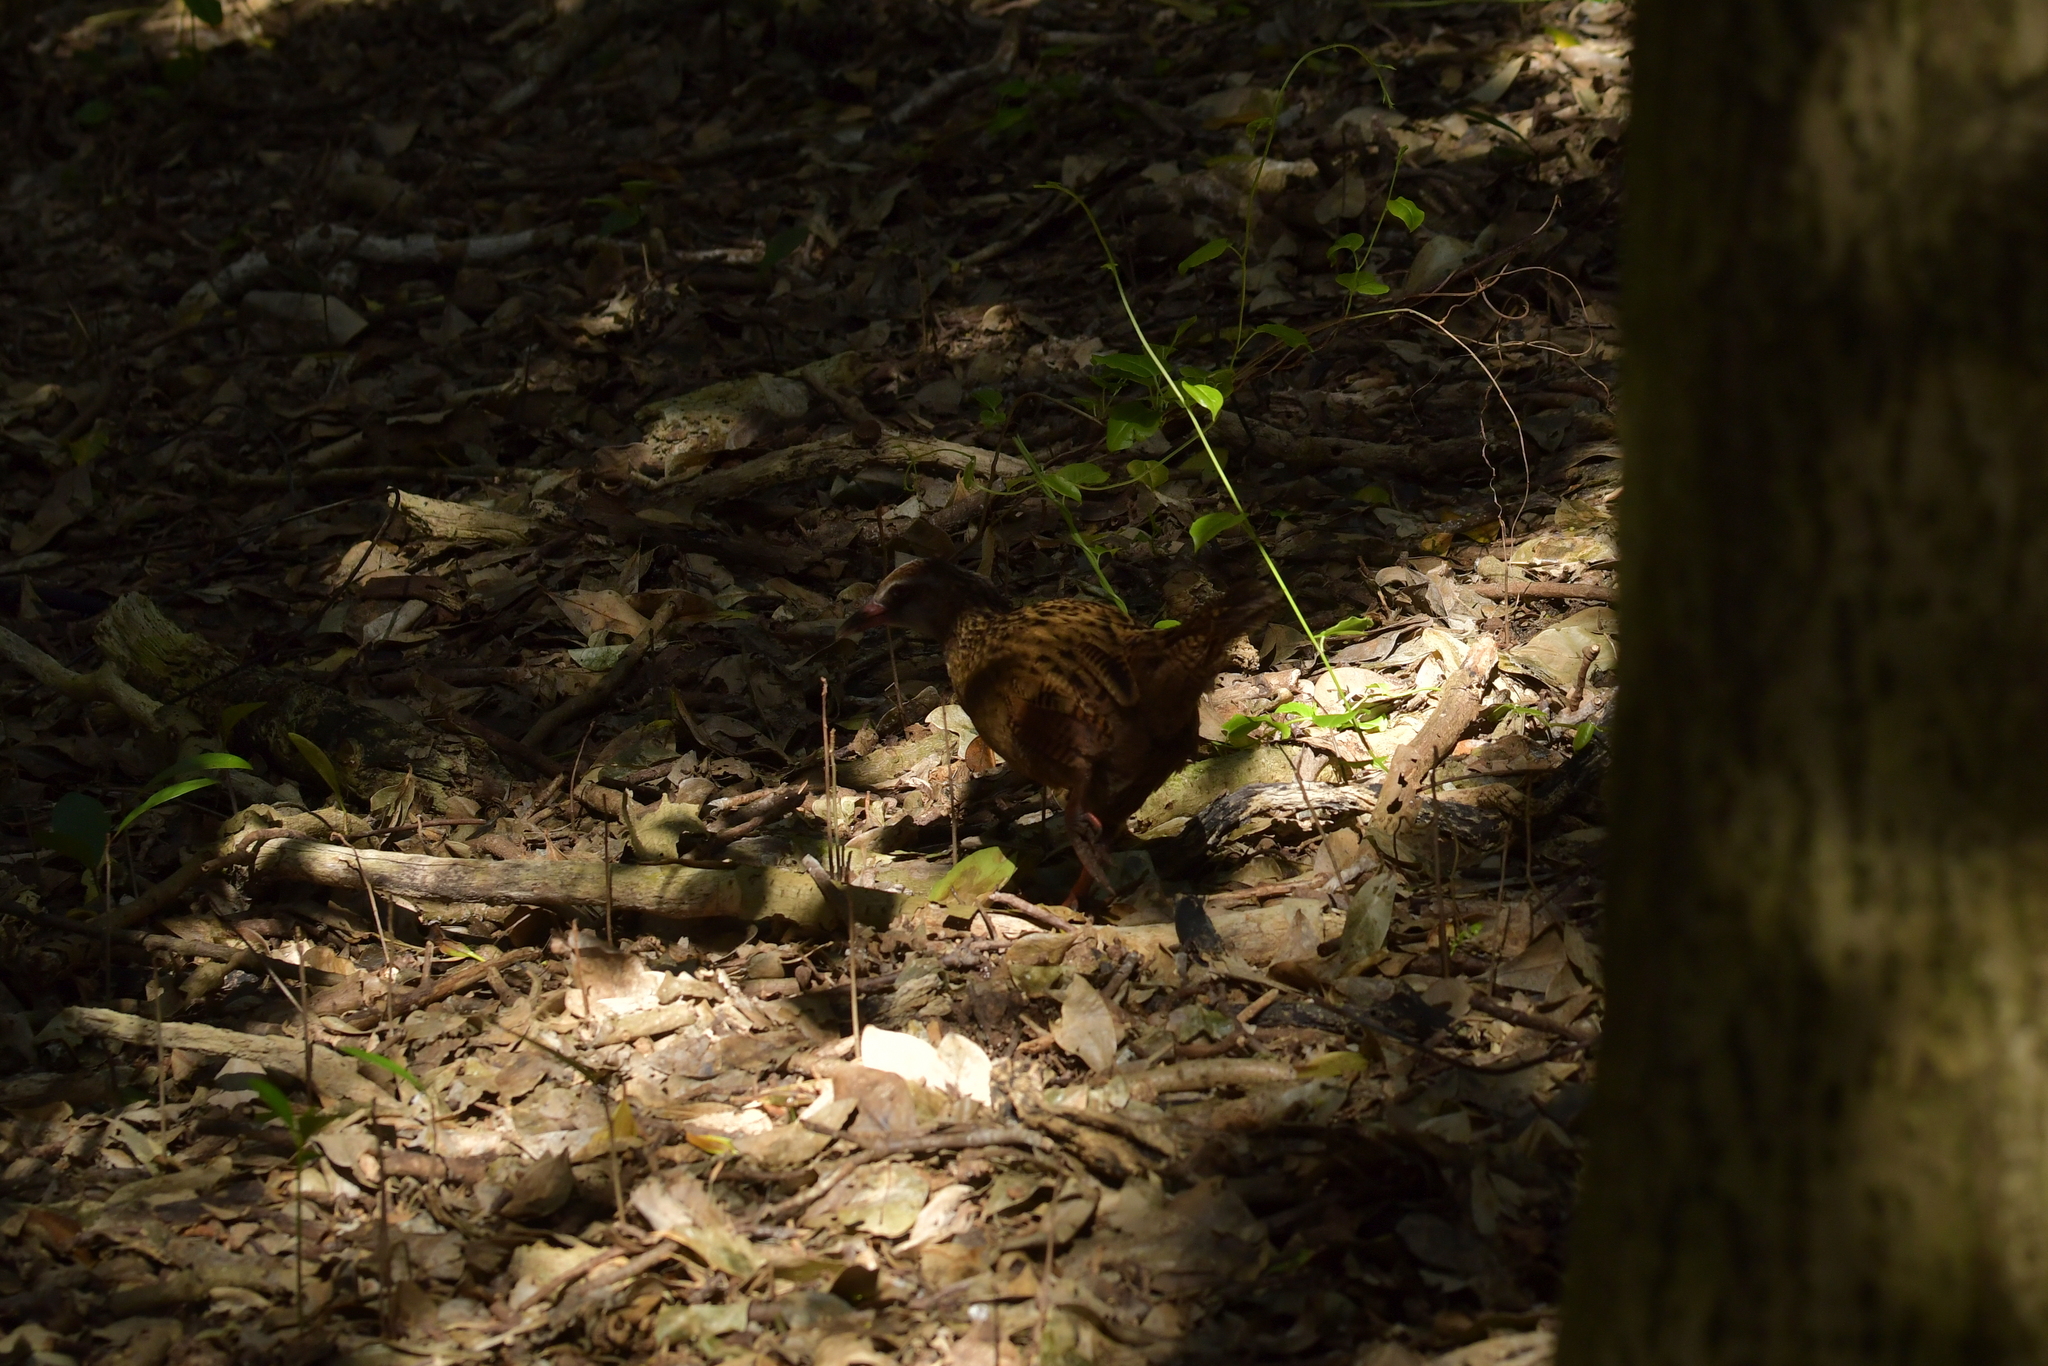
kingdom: Animalia
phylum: Chordata
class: Aves
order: Gruiformes
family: Rallidae
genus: Gallirallus
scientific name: Gallirallus australis
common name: Weka
